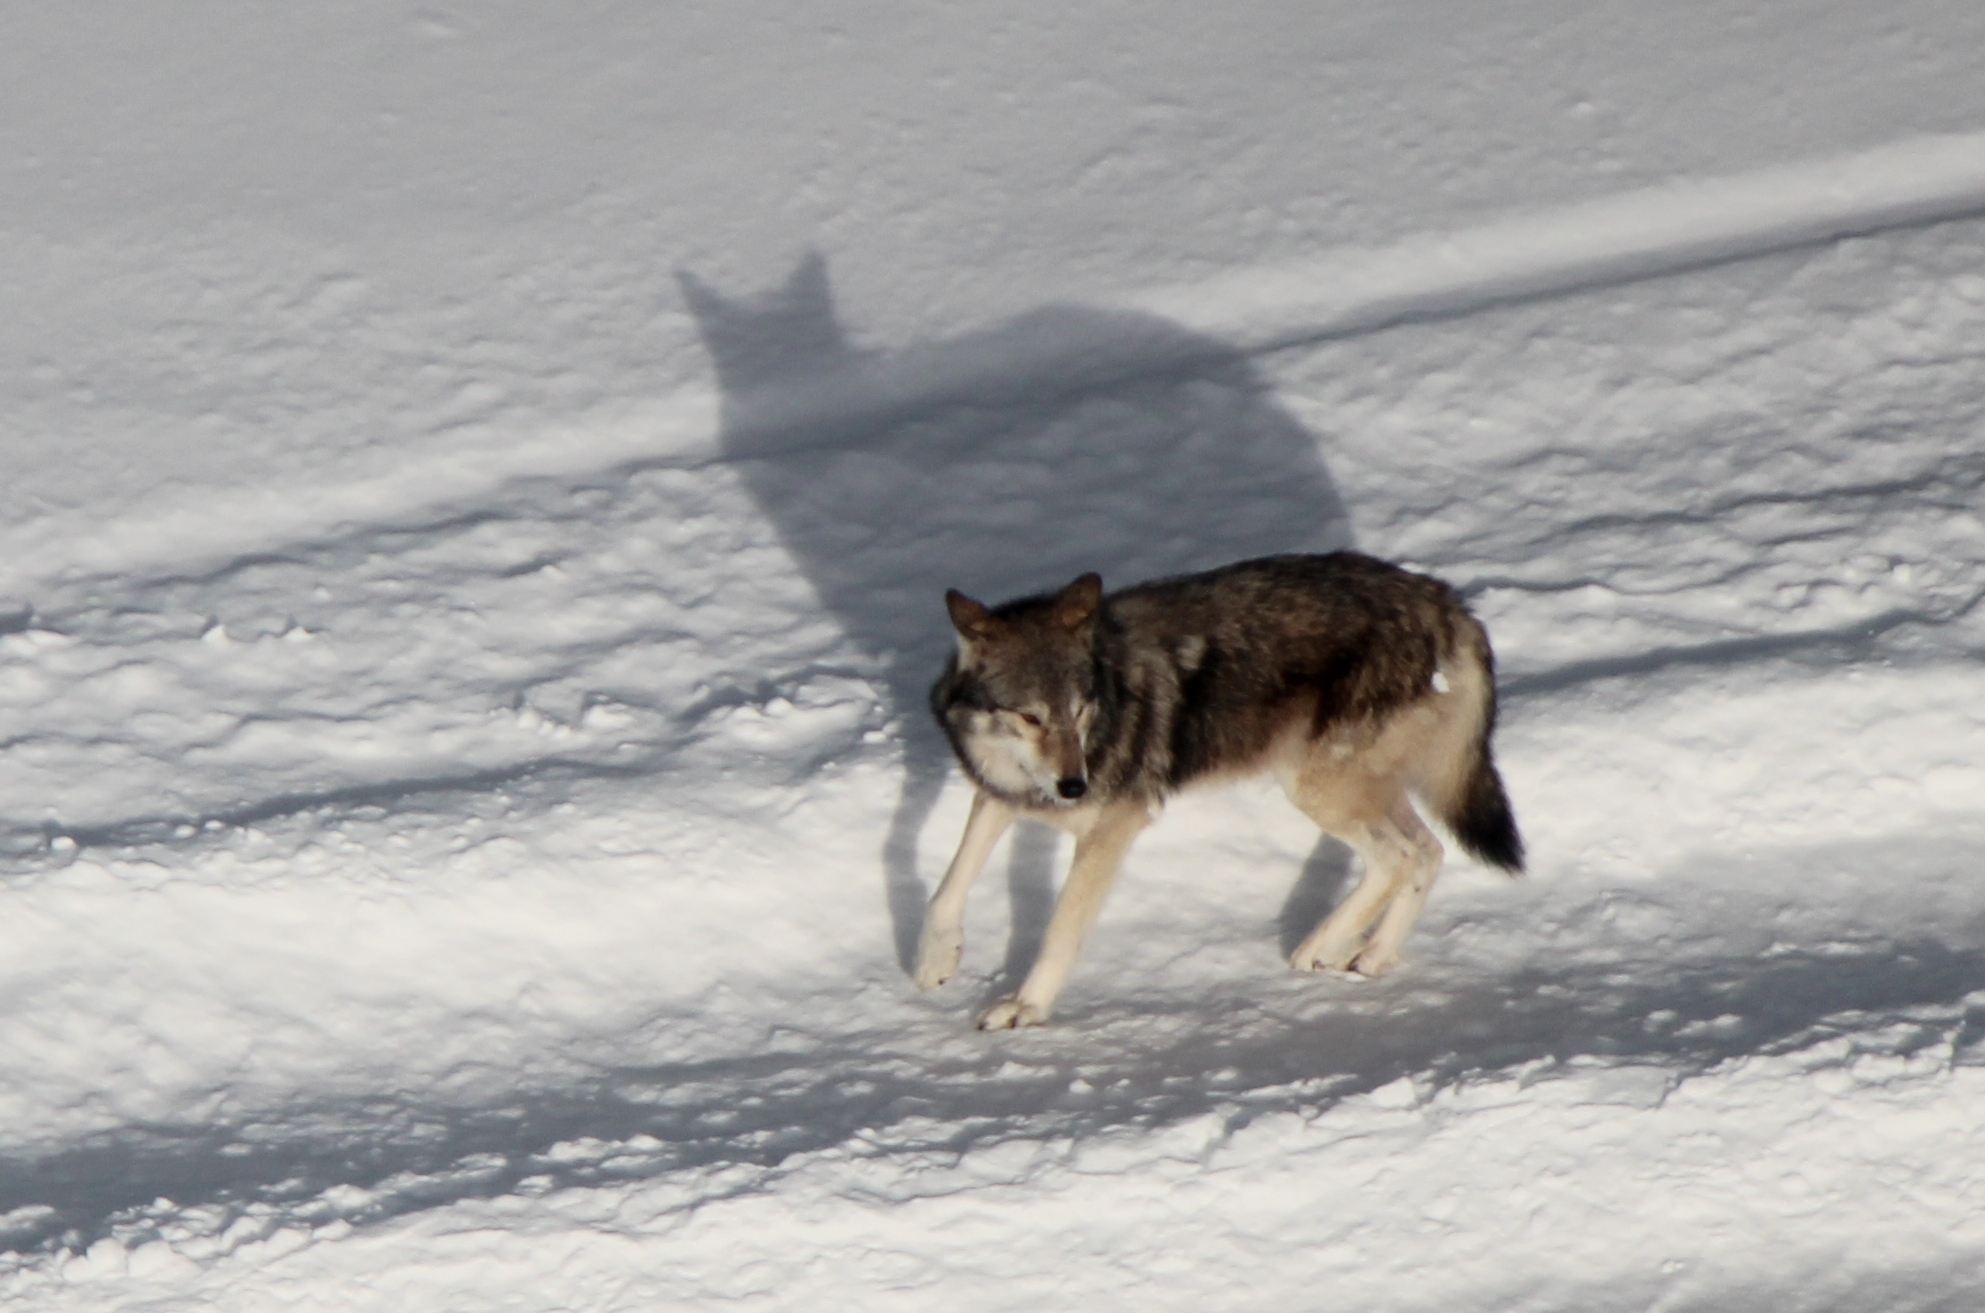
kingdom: Animalia
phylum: Chordata
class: Mammalia
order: Carnivora
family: Canidae
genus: Canis
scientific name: Canis lupus
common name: Gray wolf
